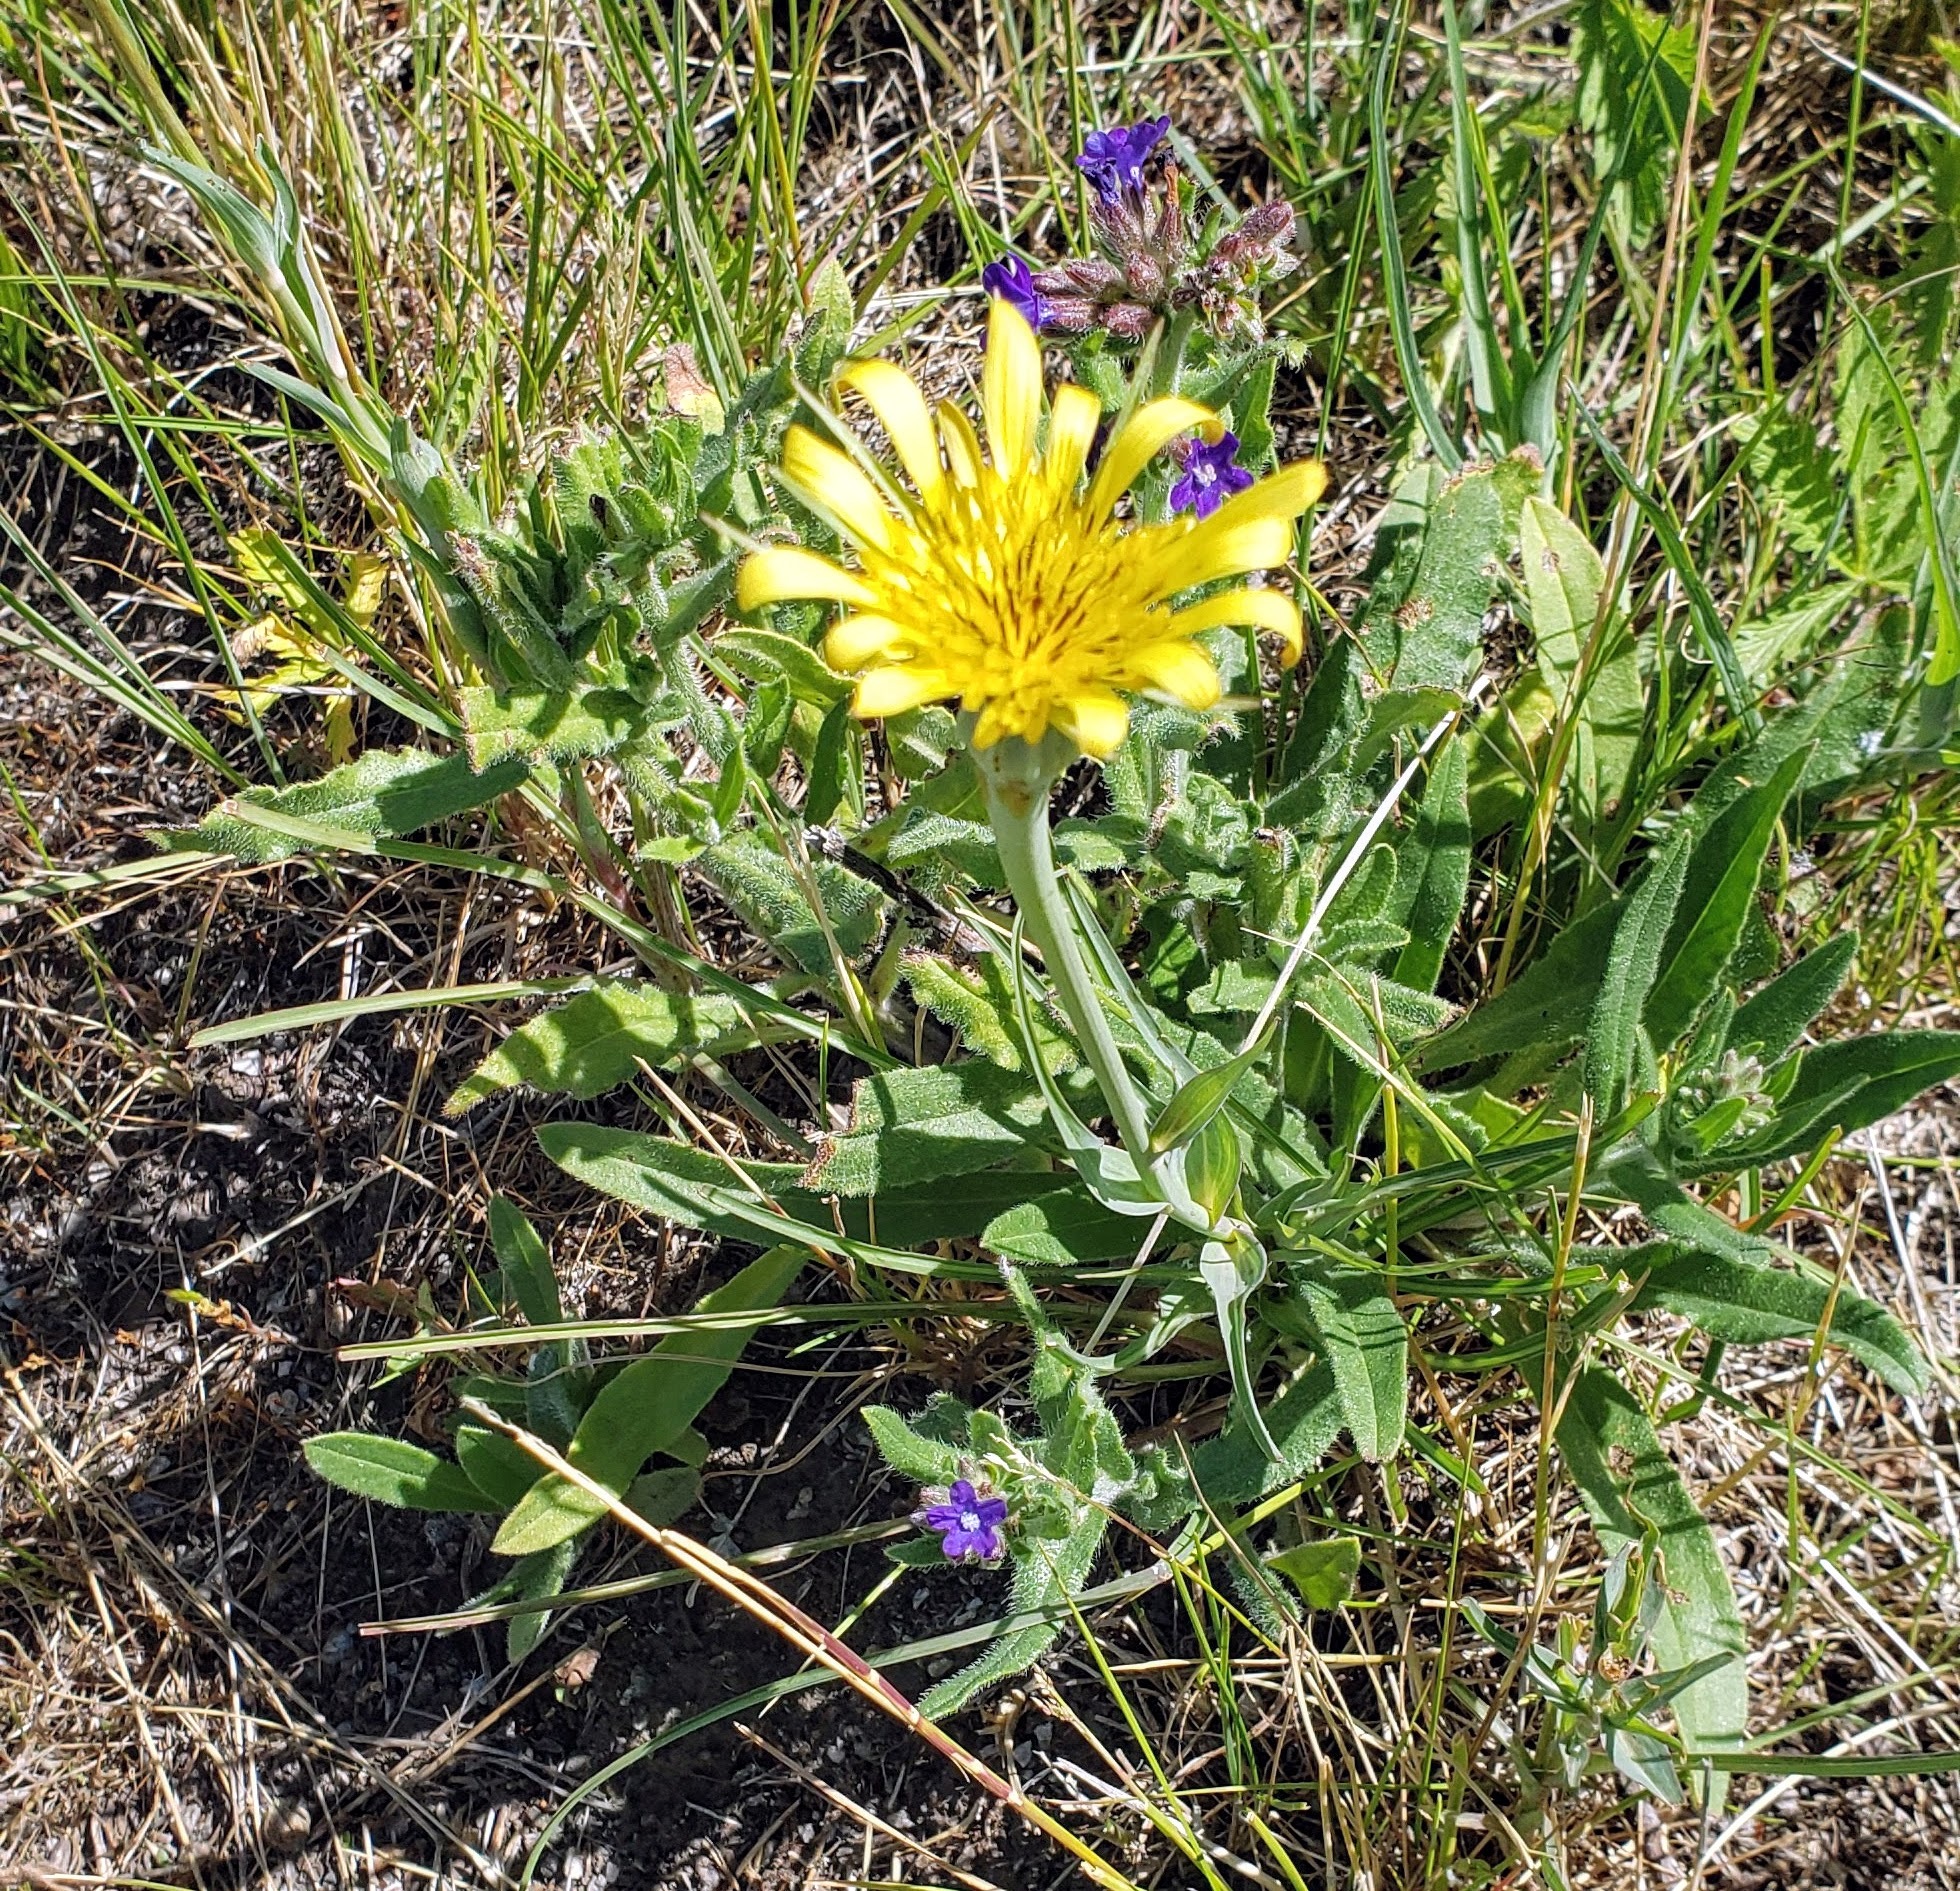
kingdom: Plantae
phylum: Tracheophyta
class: Magnoliopsida
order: Asterales
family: Asteraceae
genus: Tragopogon
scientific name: Tragopogon dubius
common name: Yellow salsify
